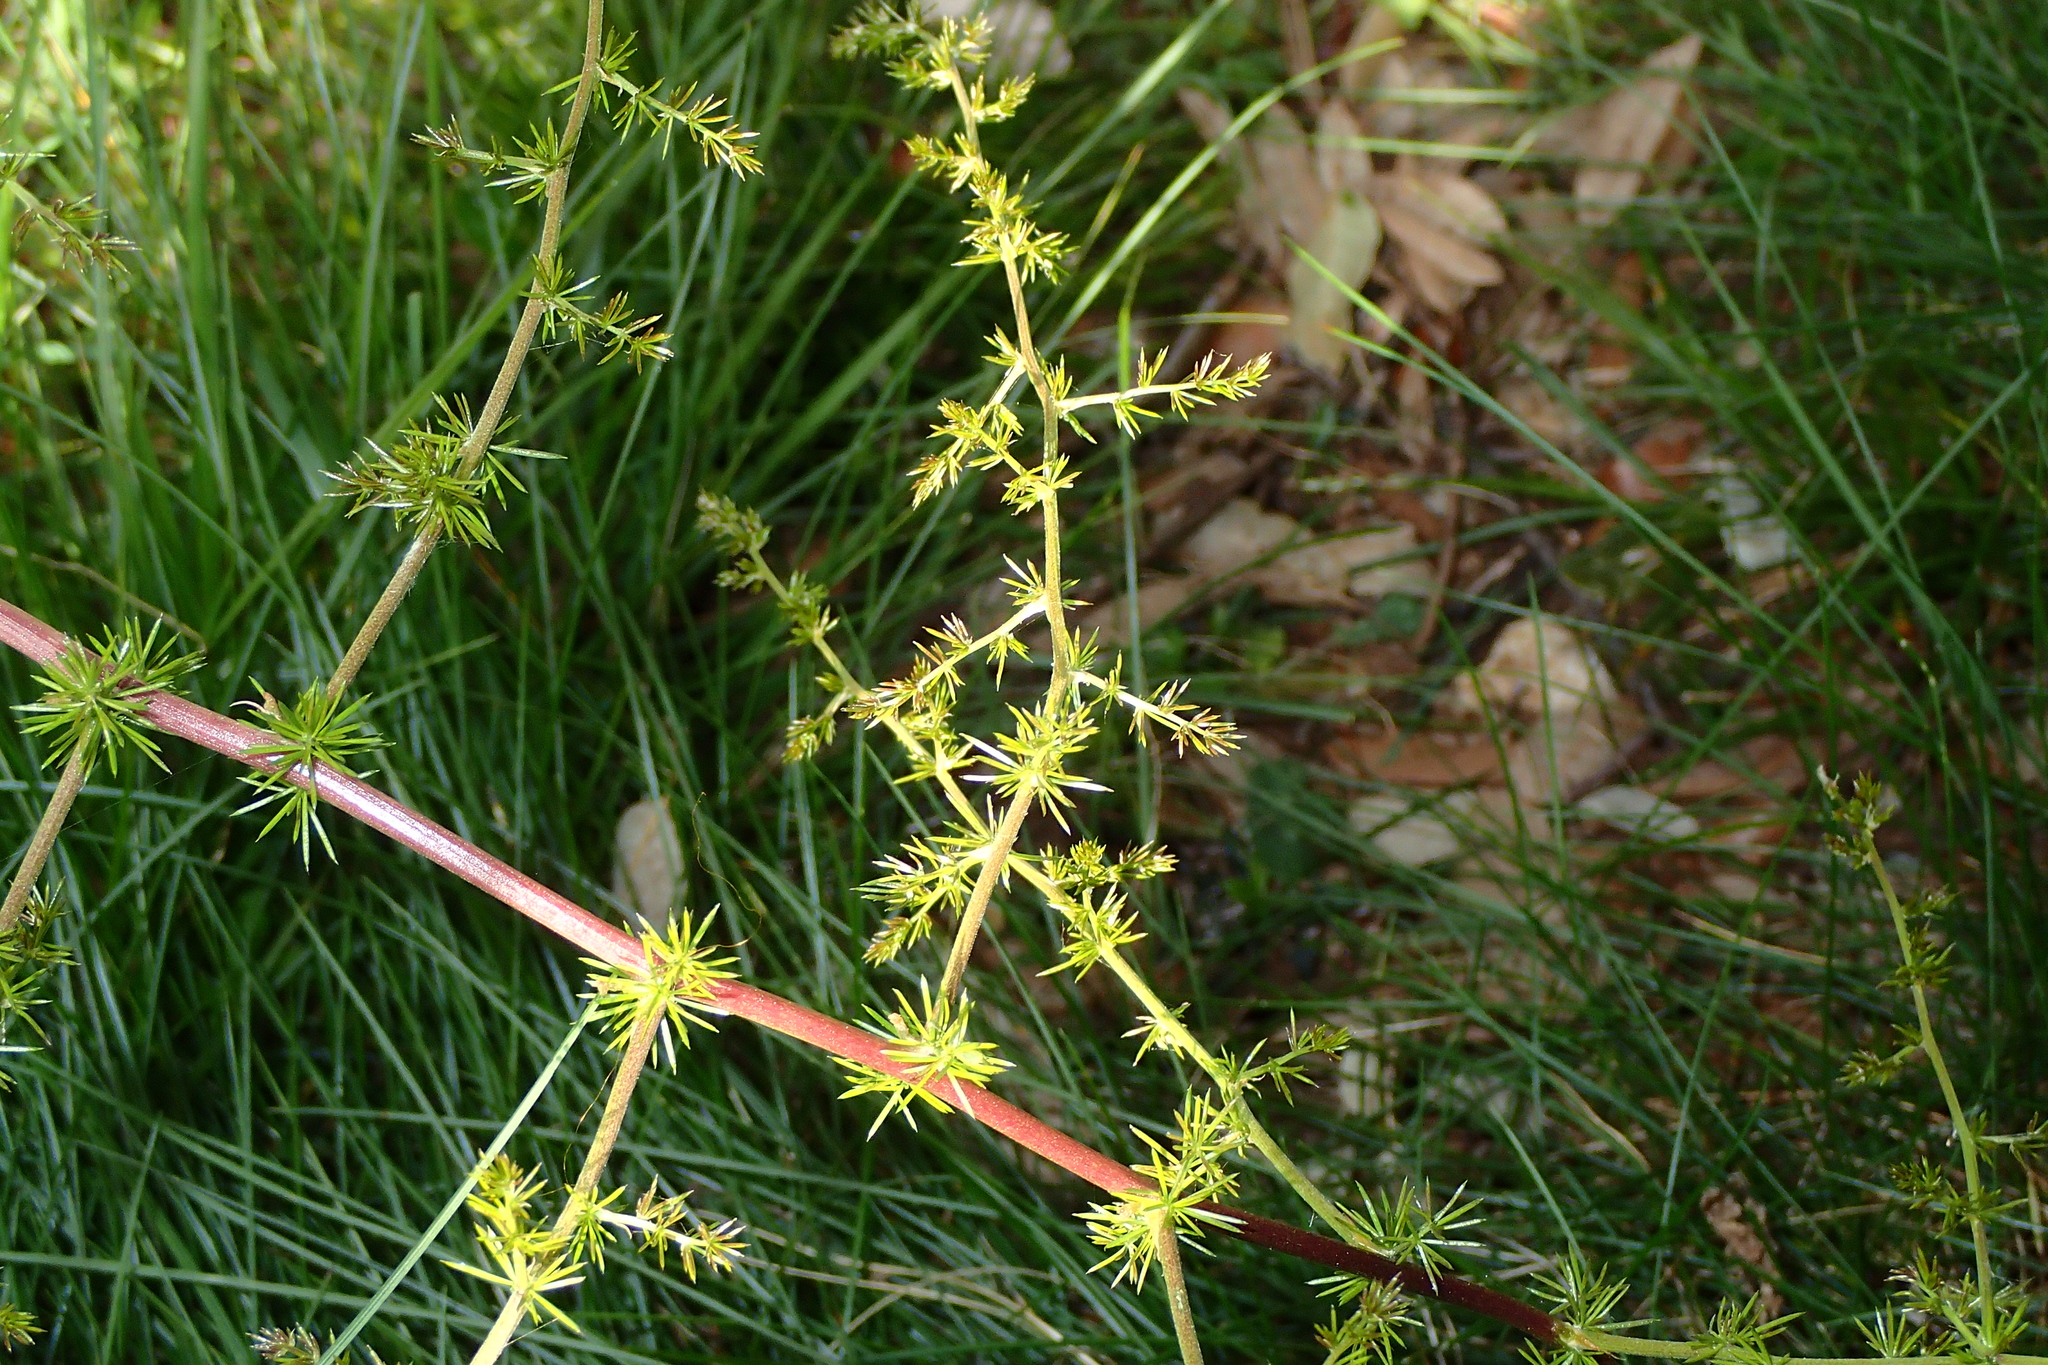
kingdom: Plantae
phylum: Tracheophyta
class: Liliopsida
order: Asparagales
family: Asparagaceae
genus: Asparagus
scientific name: Asparagus acutifolius
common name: Wild asparagus
